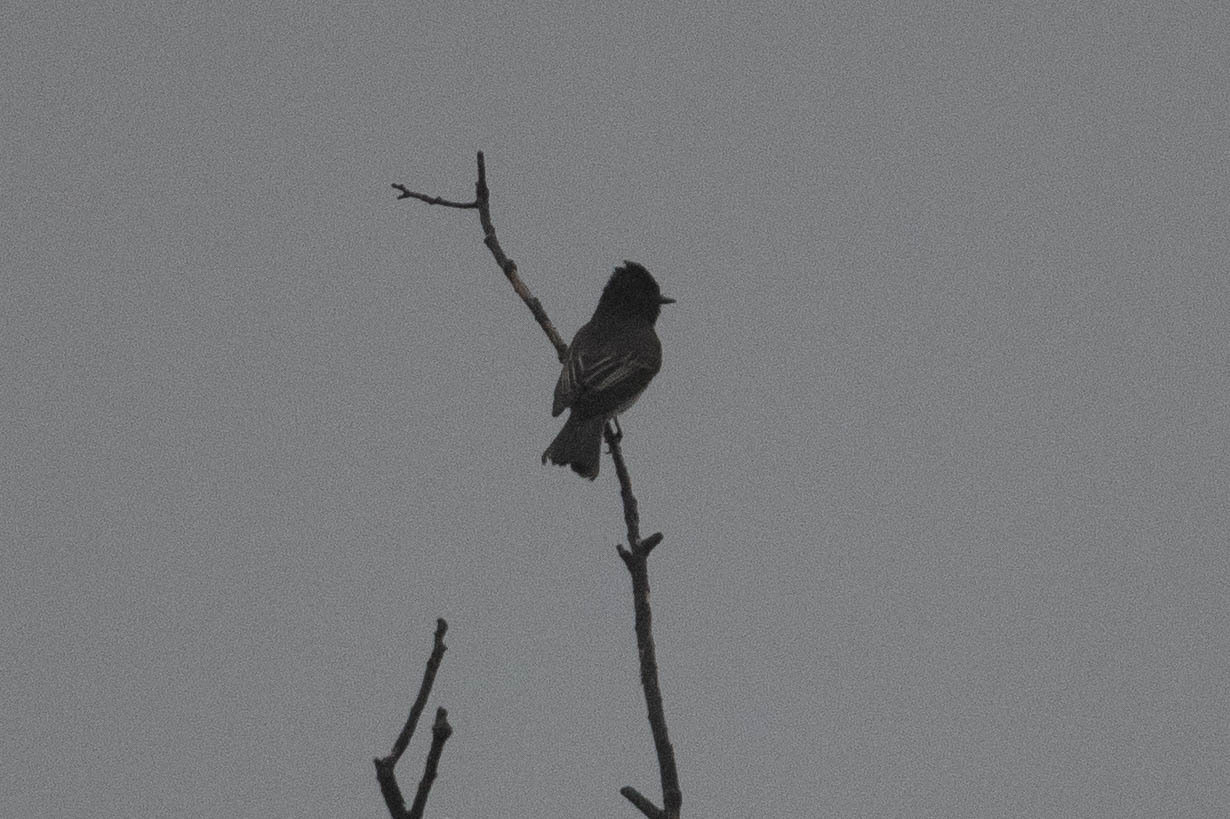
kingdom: Animalia
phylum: Chordata
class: Aves
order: Passeriformes
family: Tyrannidae
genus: Sayornis
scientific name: Sayornis nigricans
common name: Black phoebe
